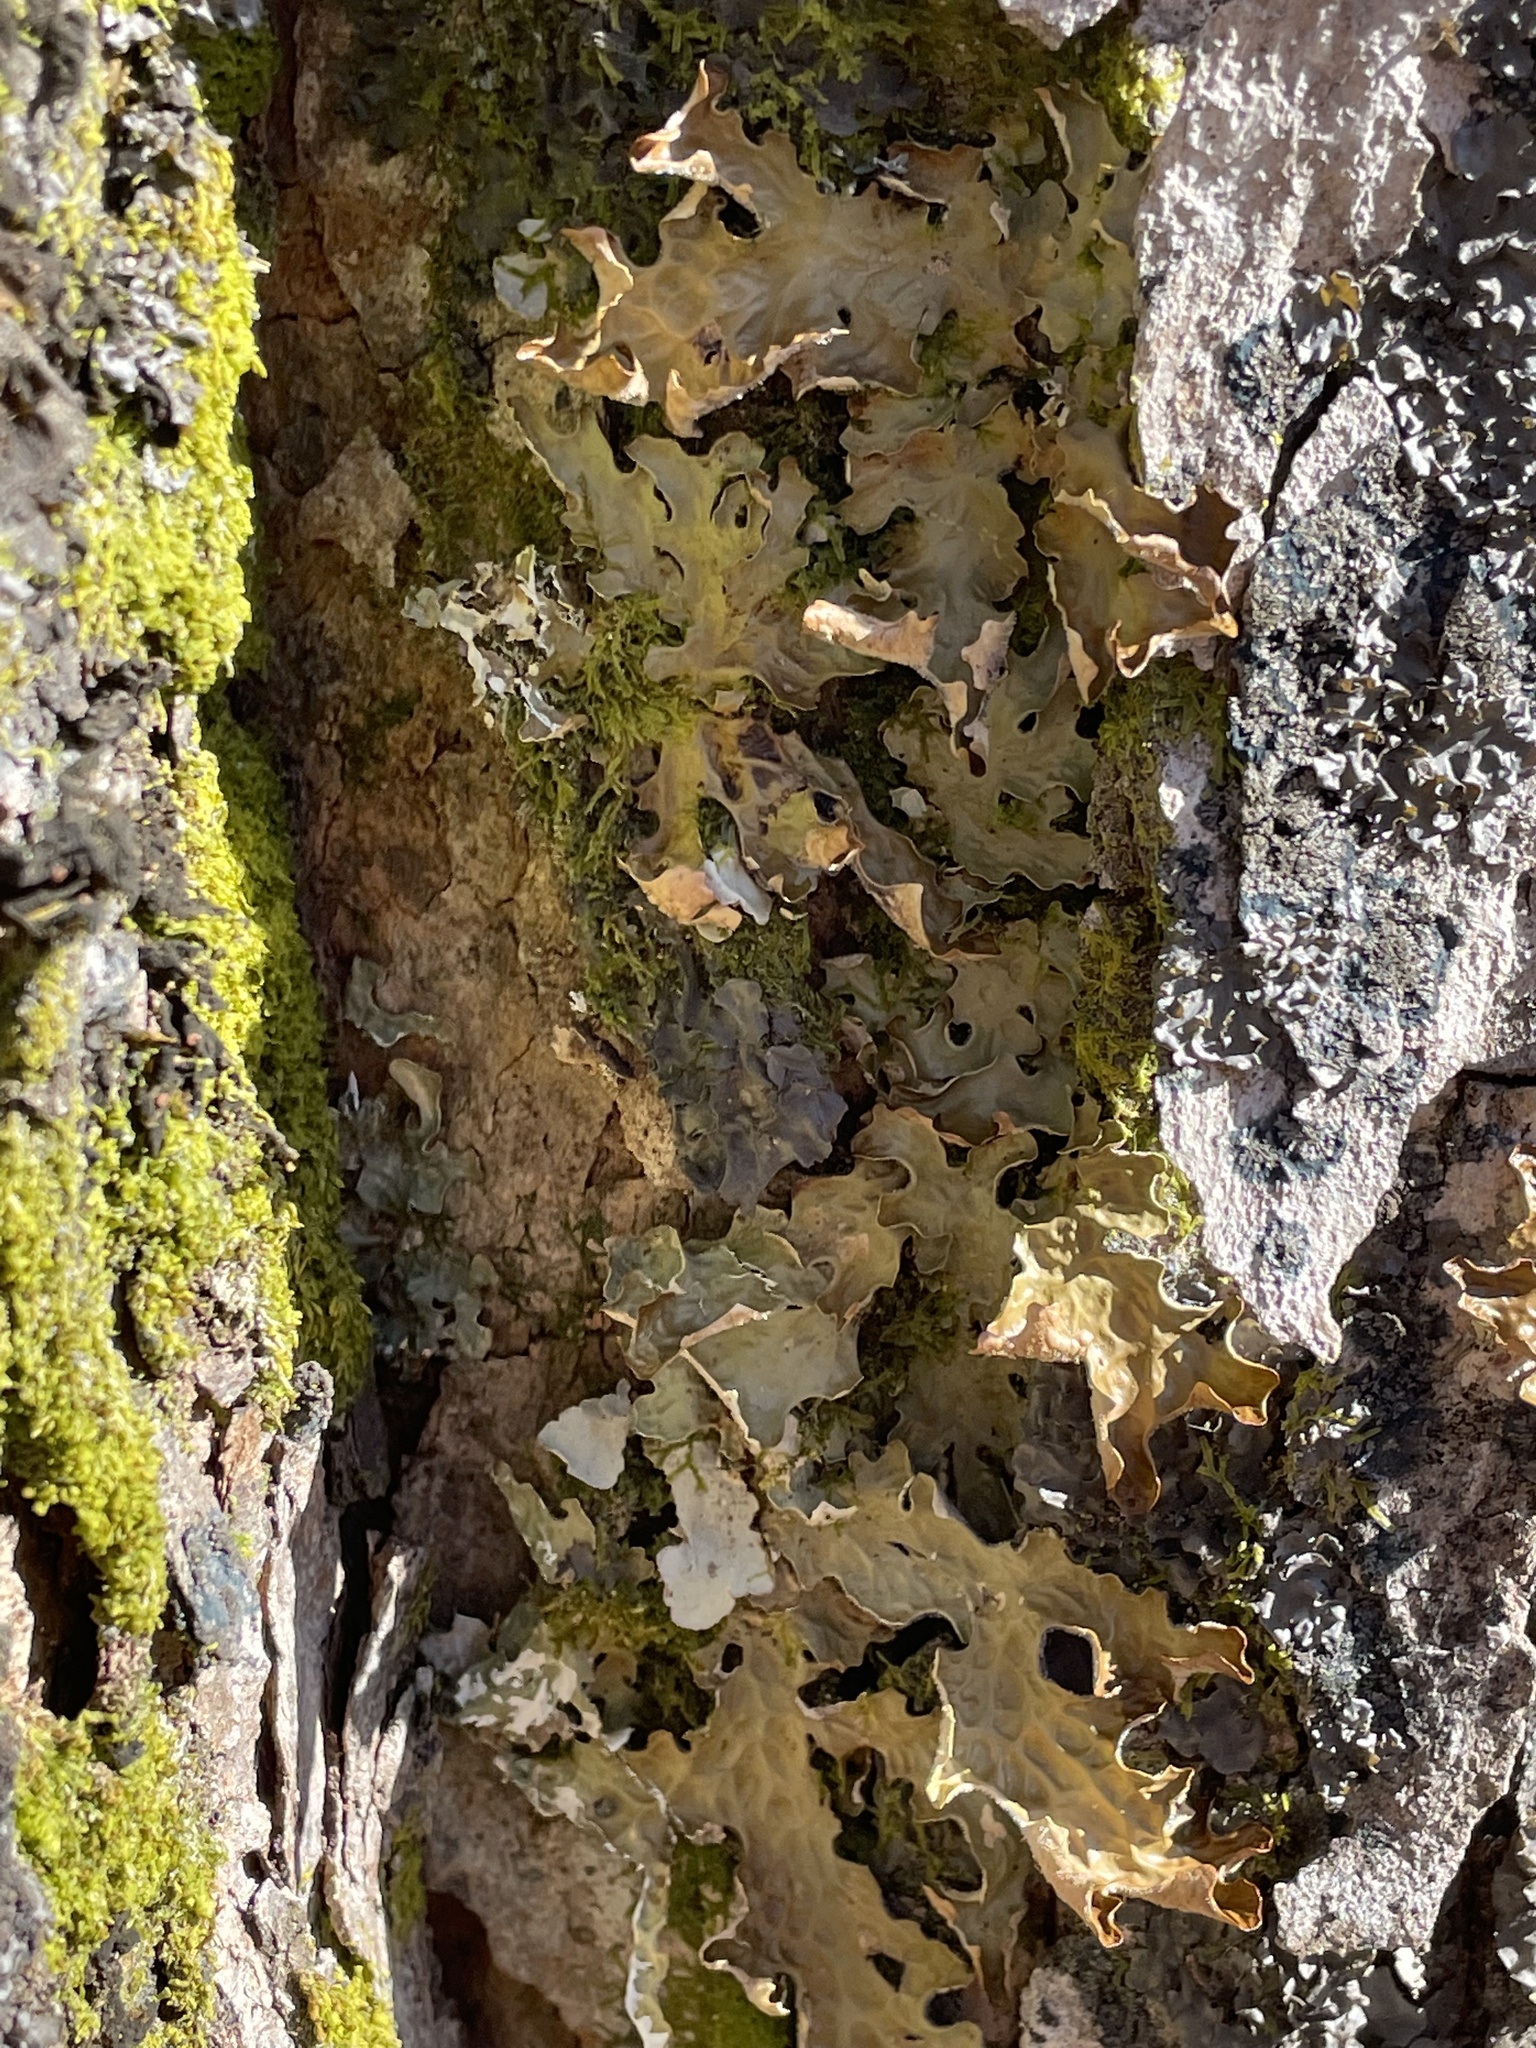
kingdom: Fungi
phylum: Ascomycota
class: Lecanoromycetes
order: Peltigerales
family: Lobariaceae
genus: Lobaria
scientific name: Lobaria pulmonaria
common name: Lungwort
